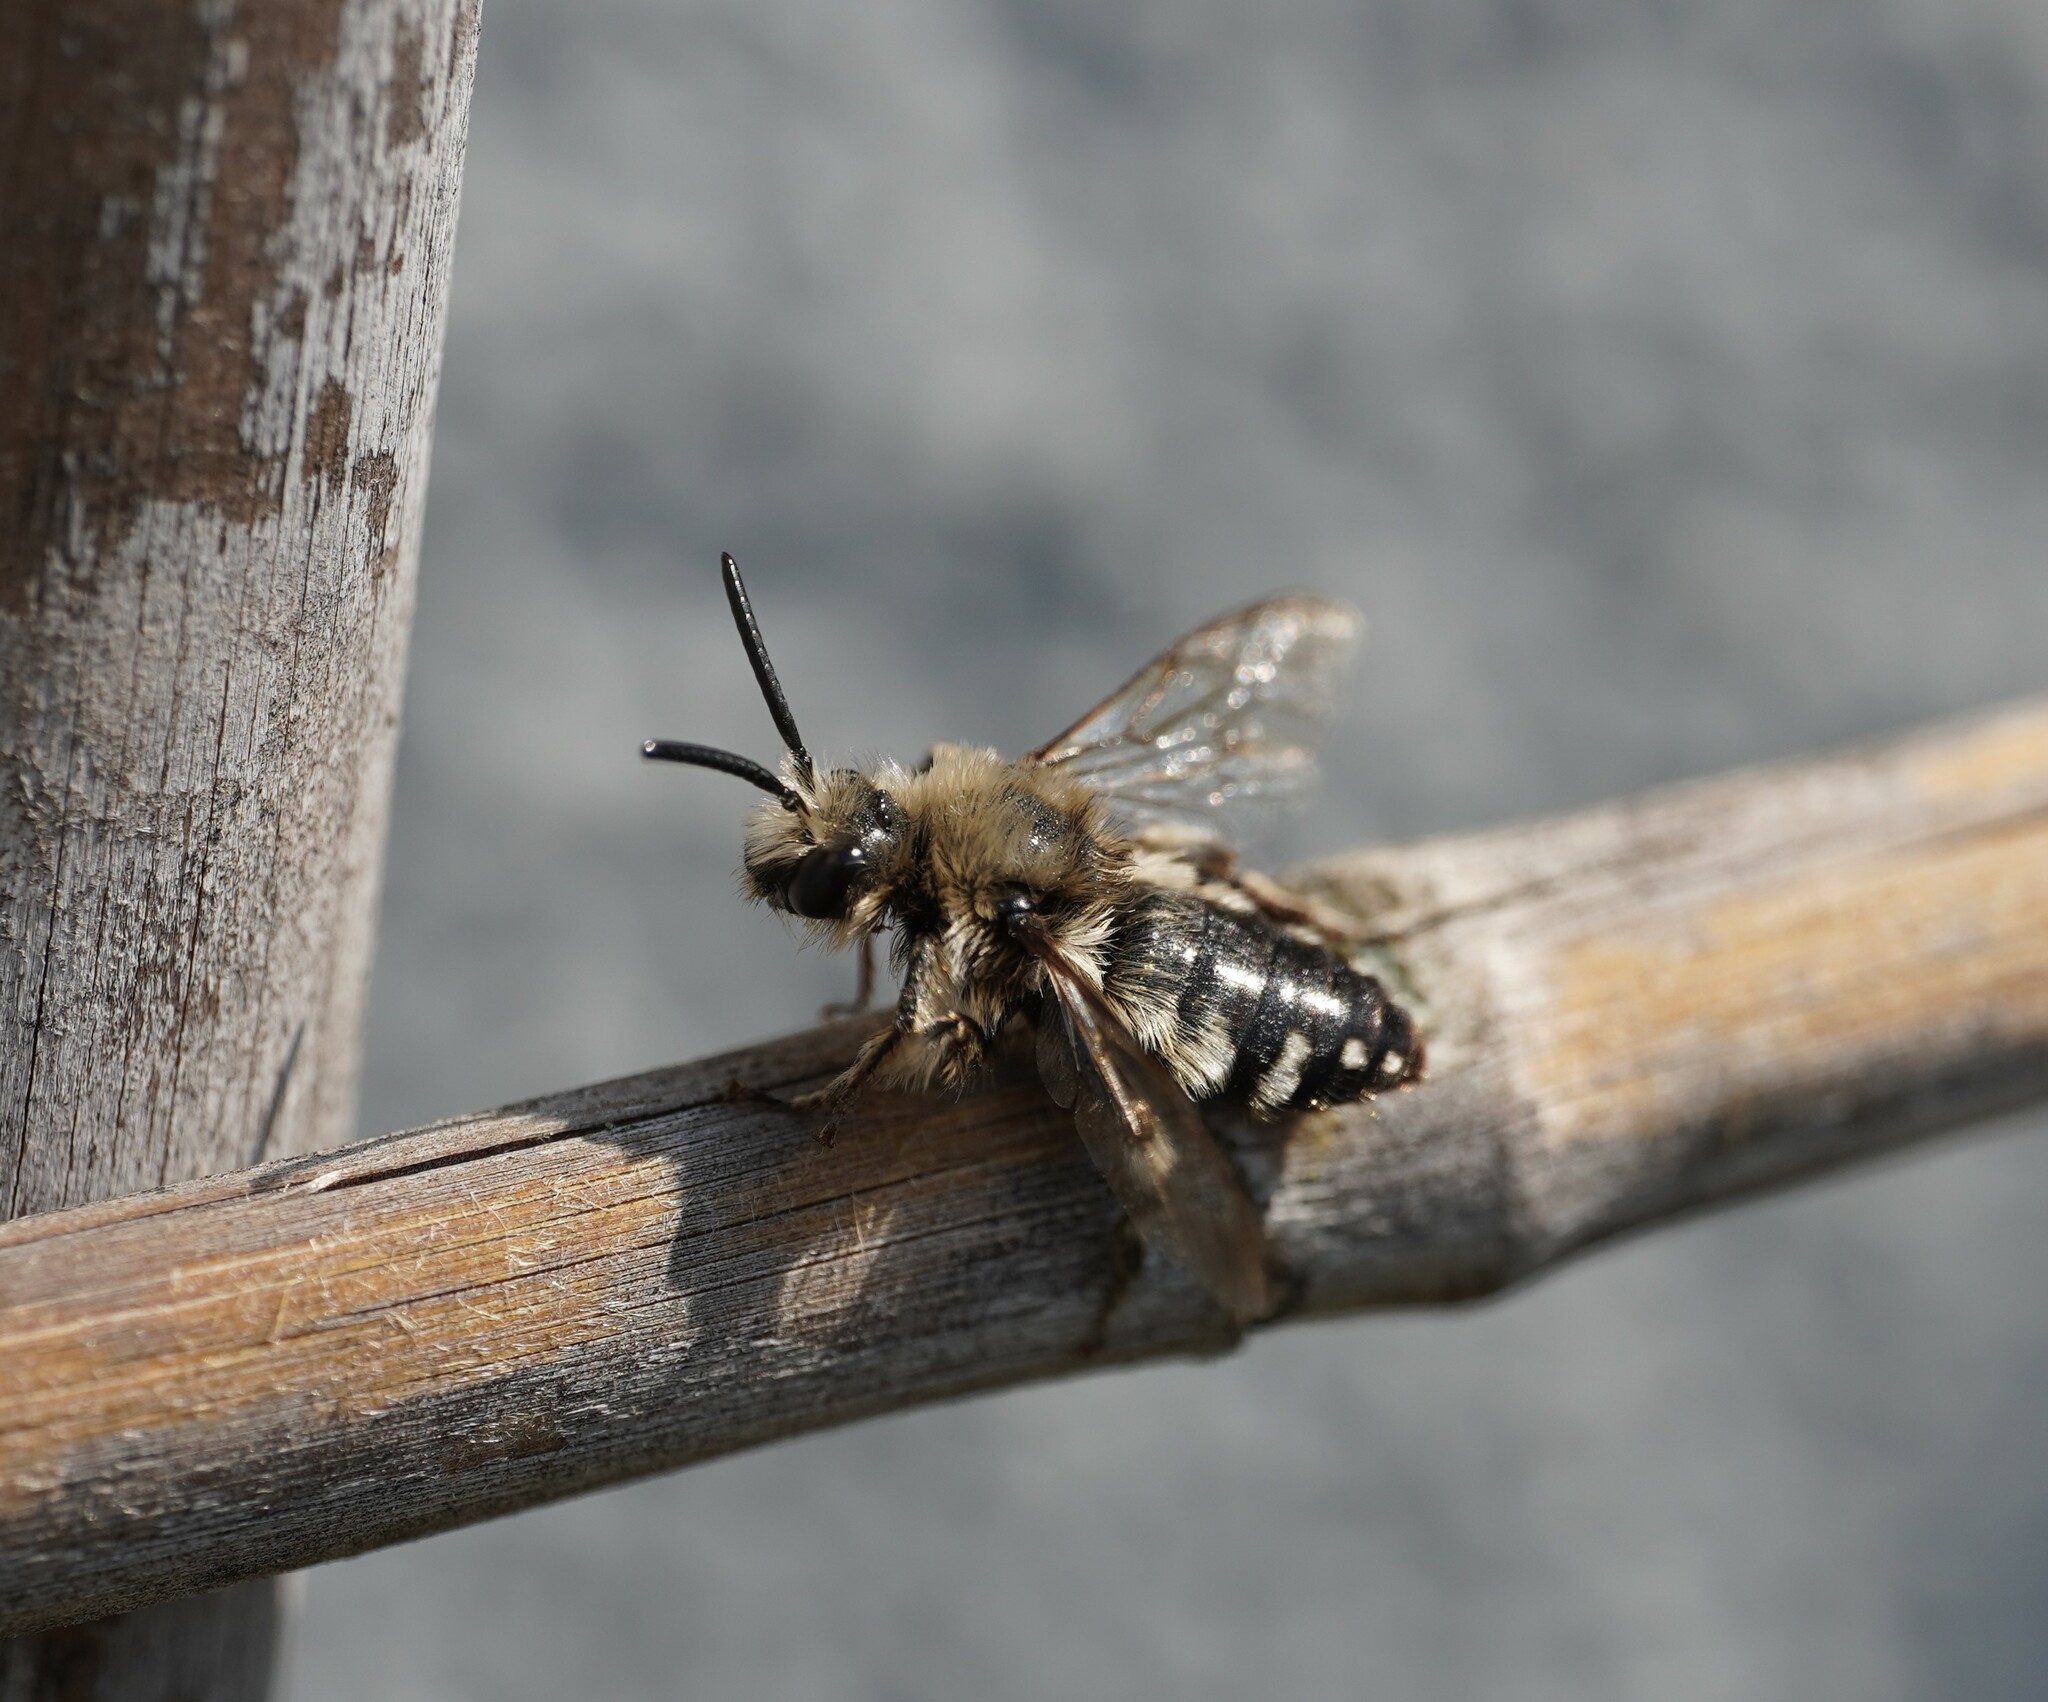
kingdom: Animalia
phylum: Arthropoda
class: Insecta
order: Hymenoptera
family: Apidae
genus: Melecta
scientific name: Melecta albifrons
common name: Common mourning bee
